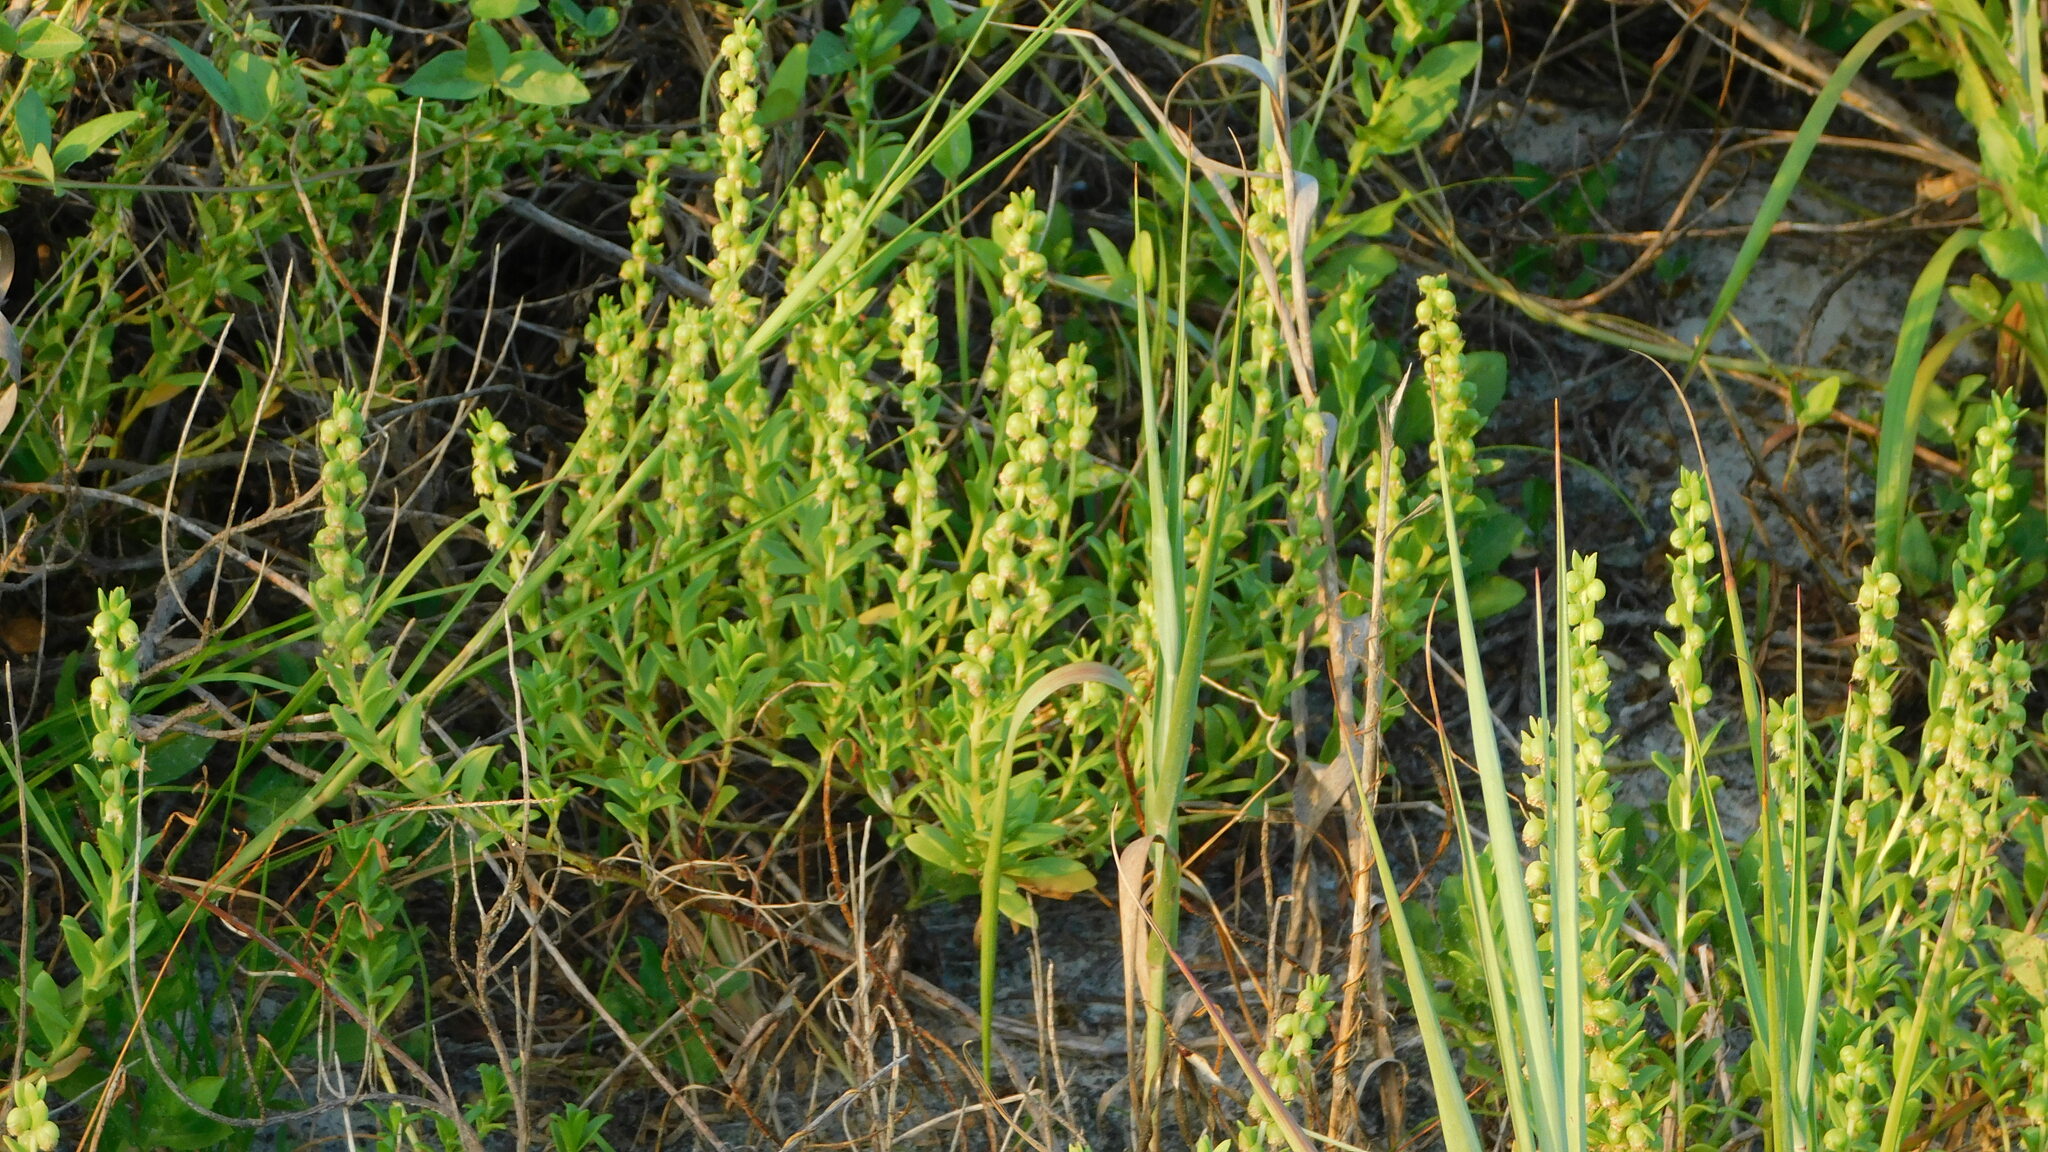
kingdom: Plantae
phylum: Tracheophyta
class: Magnoliopsida
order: Asterales
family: Asteraceae
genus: Iva
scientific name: Iva imbricata
